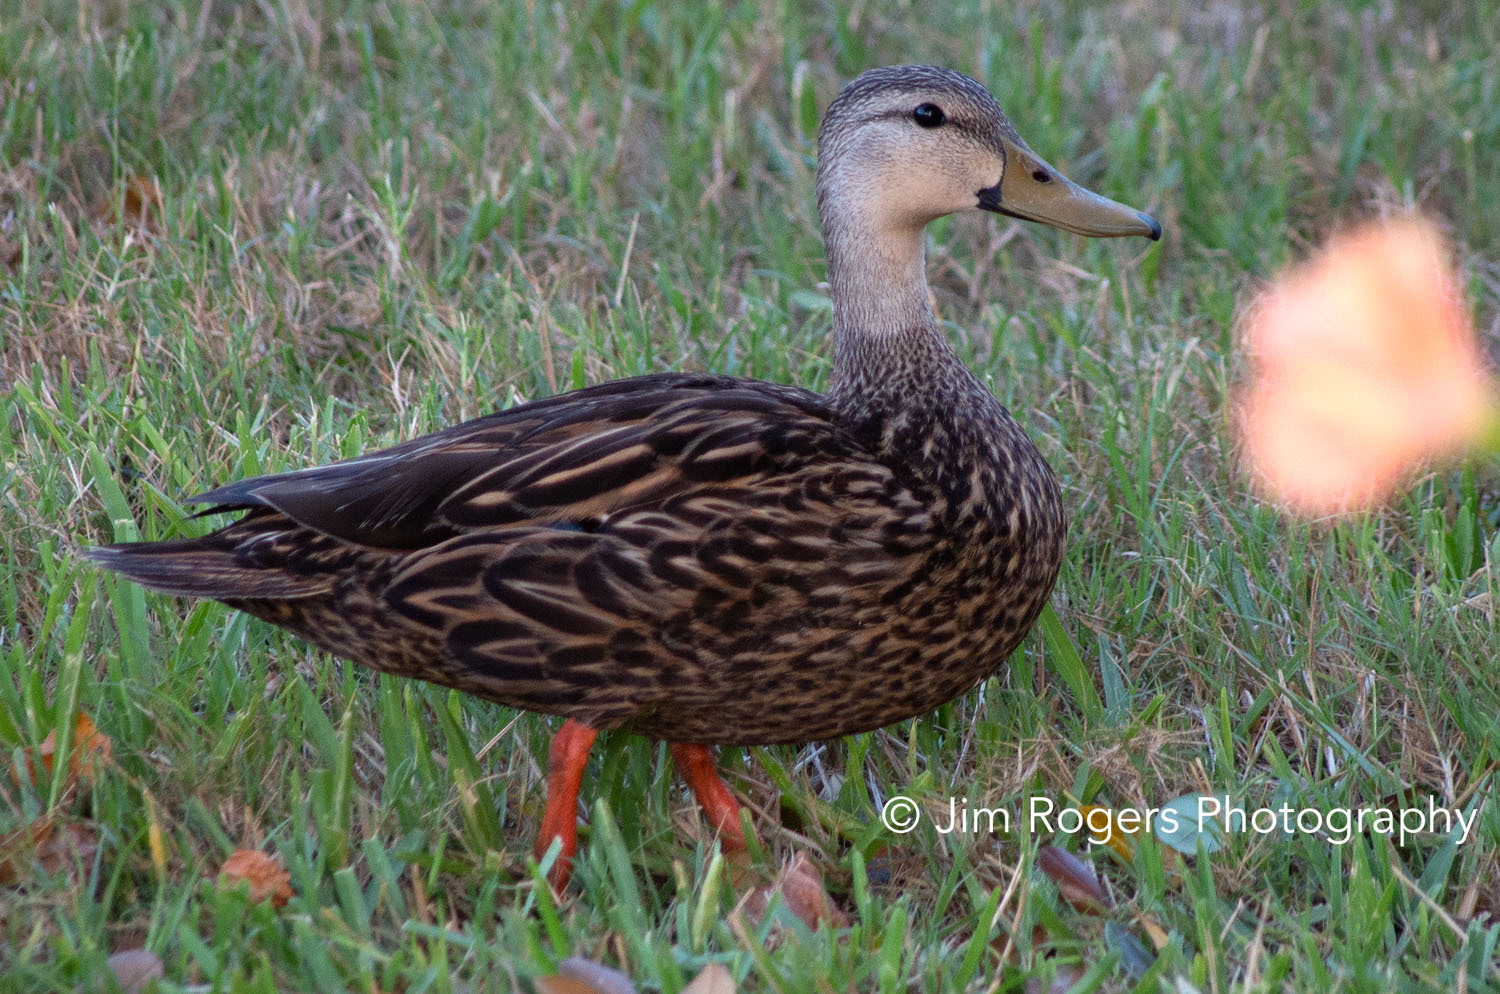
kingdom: Animalia
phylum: Chordata
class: Aves
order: Anseriformes
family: Anatidae
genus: Anas
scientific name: Anas fulvigula
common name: Mottled duck
